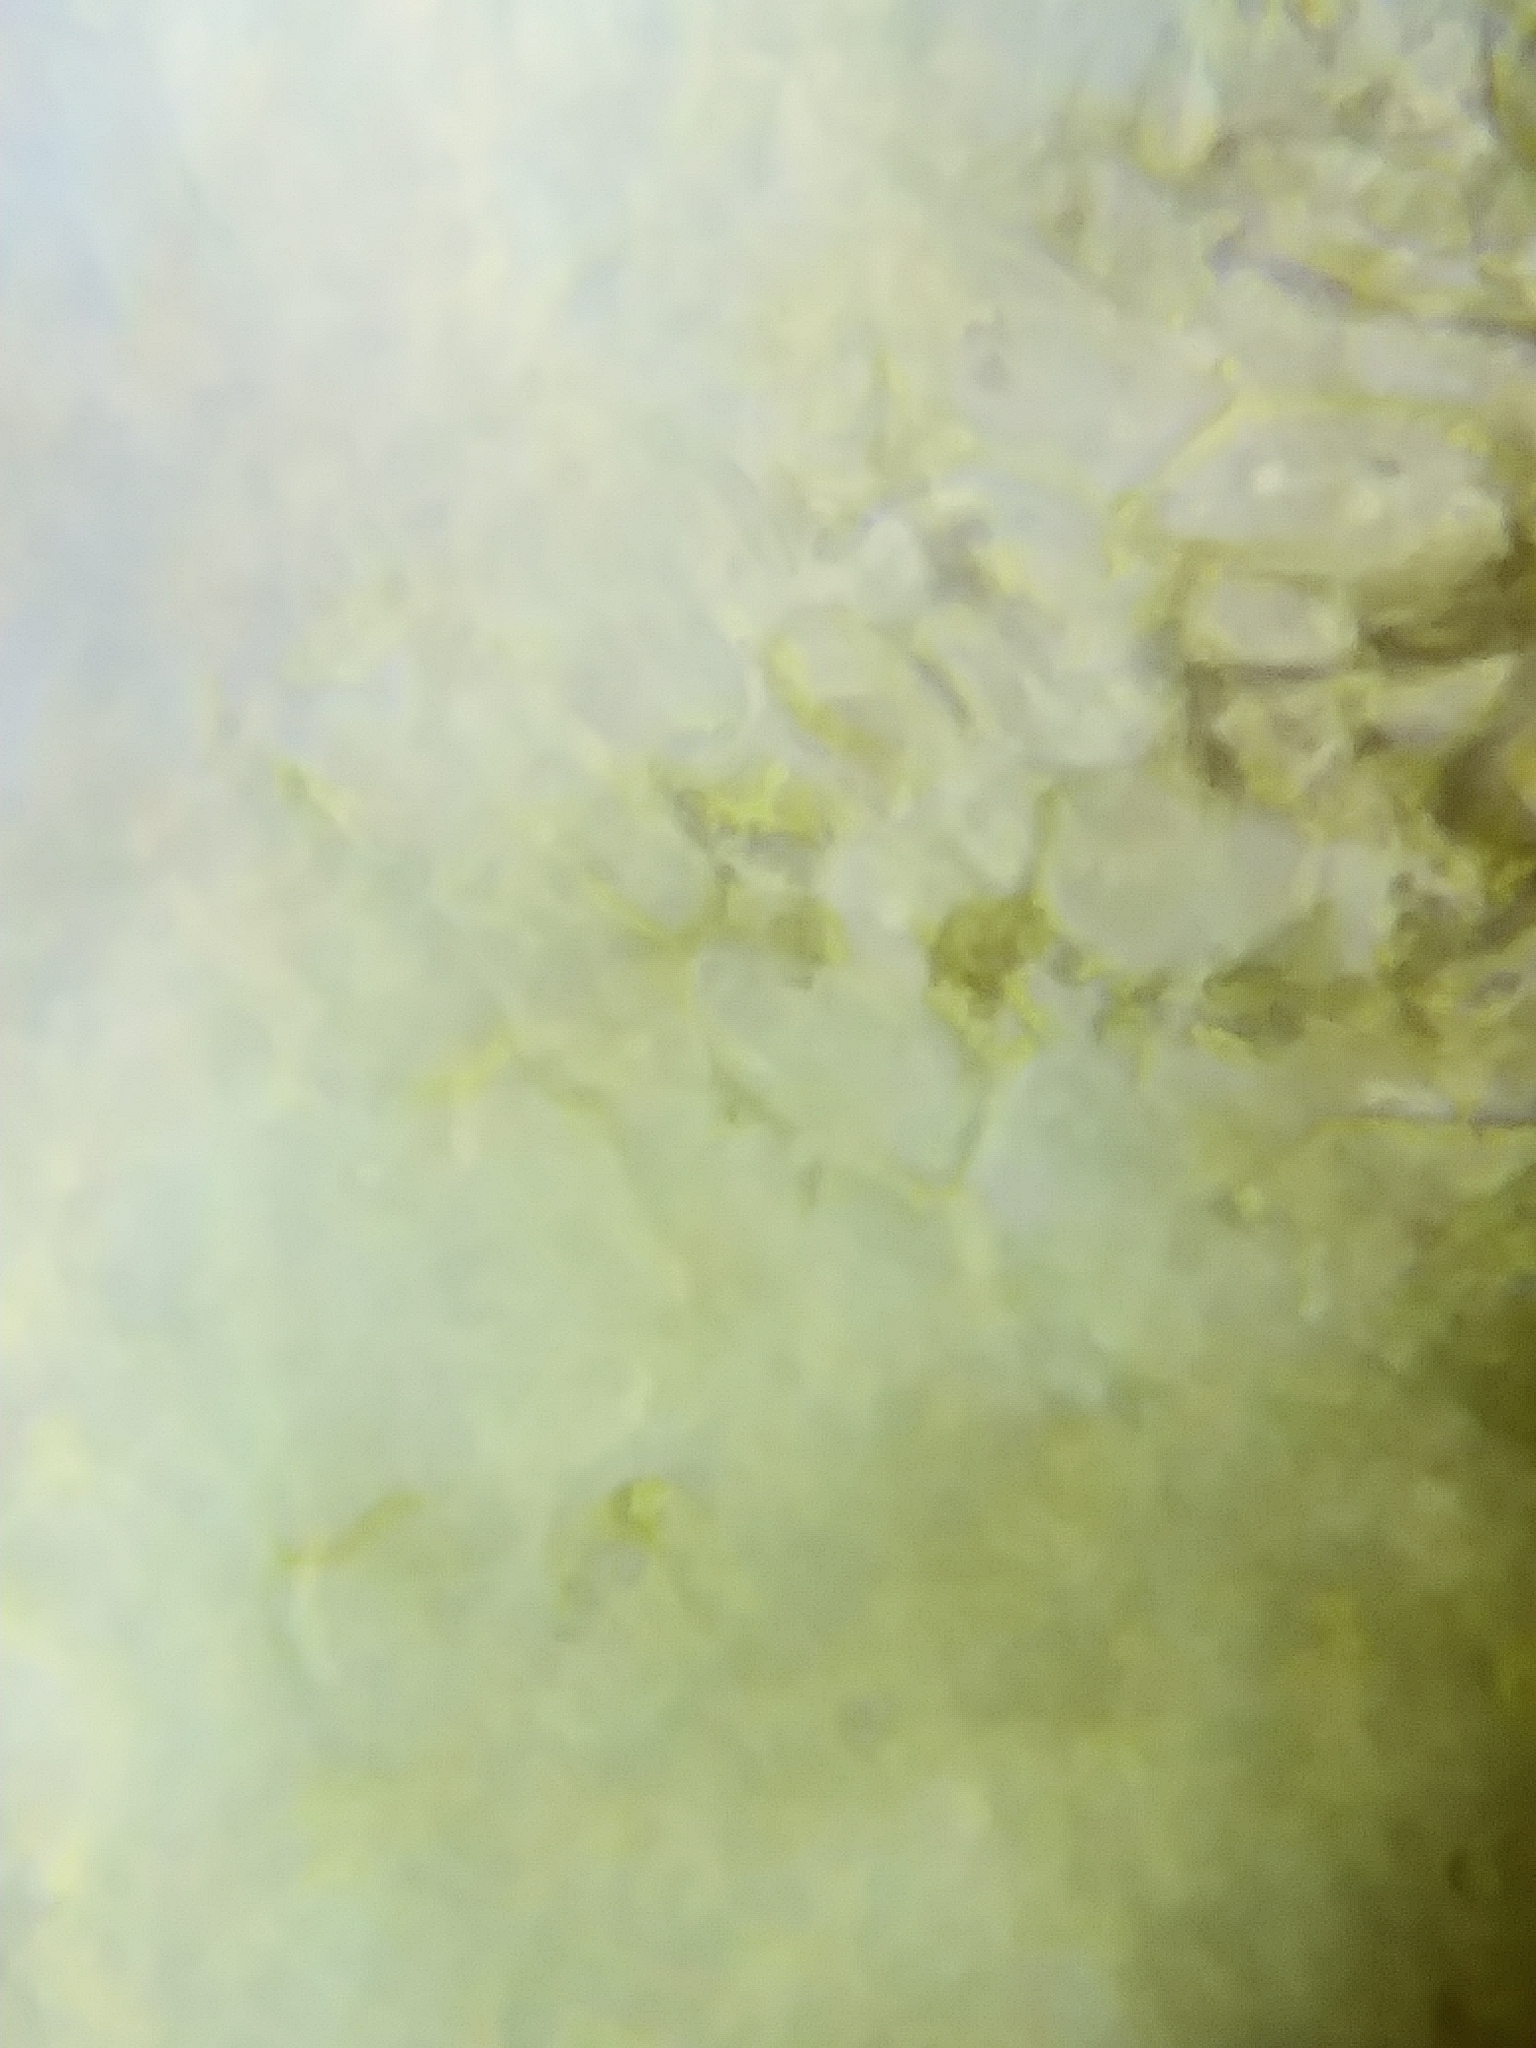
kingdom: Fungi
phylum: Ascomycota
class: Leotiomycetes
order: Helotiales
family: Chlorospleniaceae
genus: Chlorosplenium
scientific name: Chlorosplenium chlora
